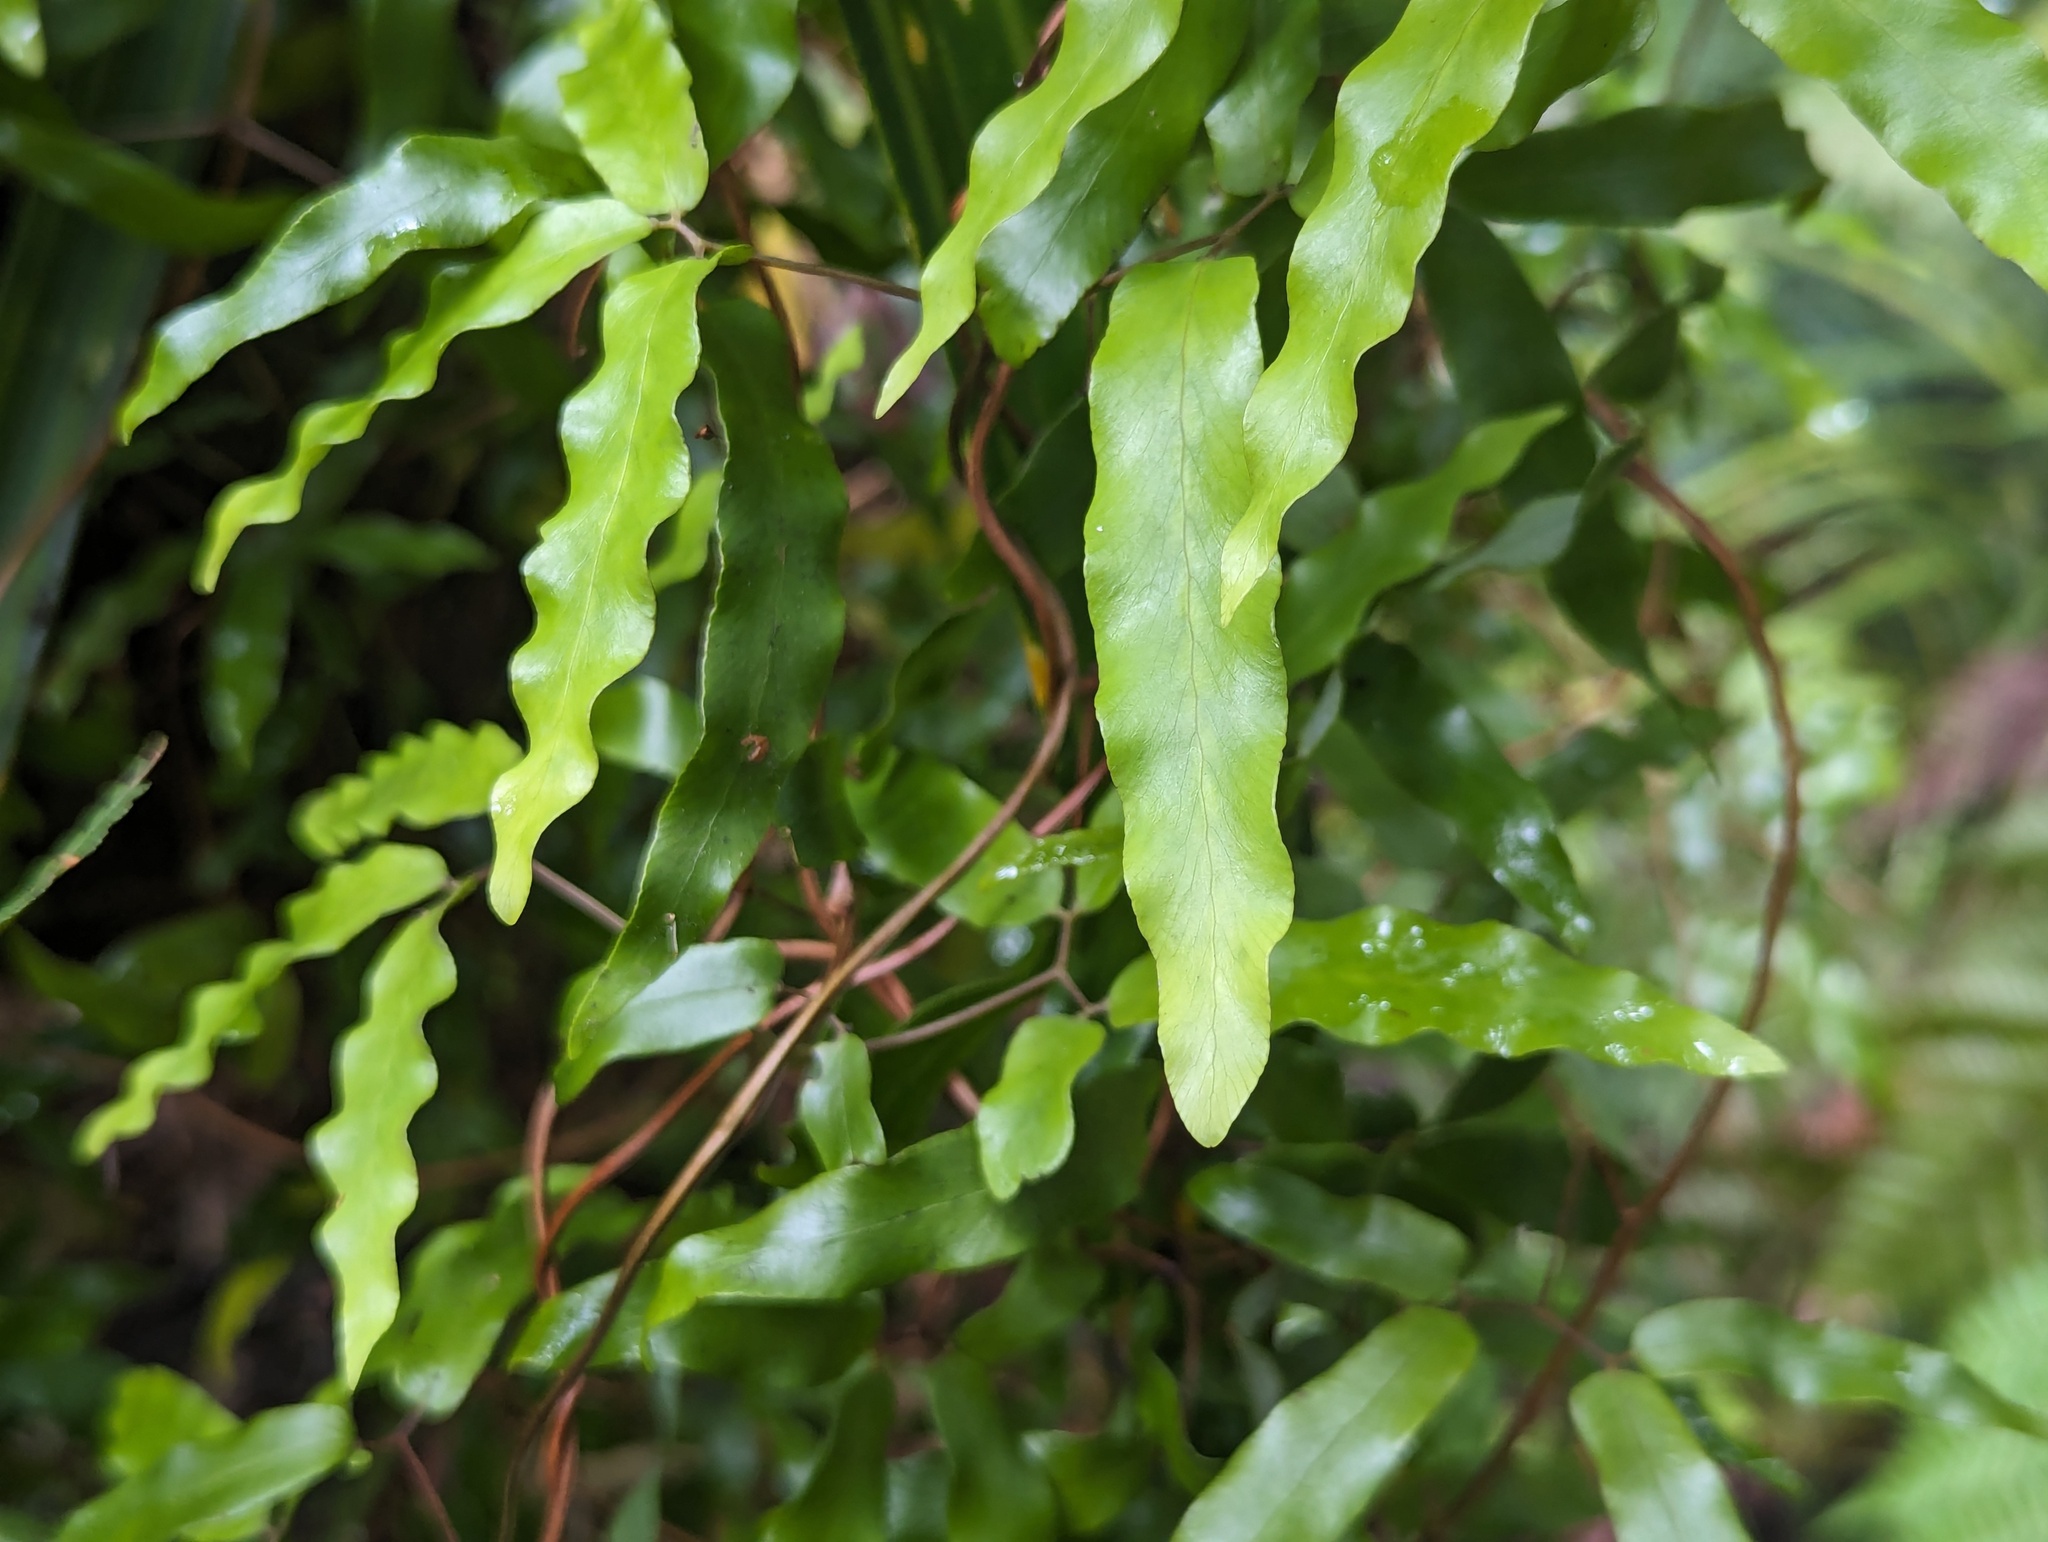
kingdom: Plantae
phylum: Tracheophyta
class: Polypodiopsida
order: Schizaeales
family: Lygodiaceae
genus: Lygodium
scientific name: Lygodium articulatum
